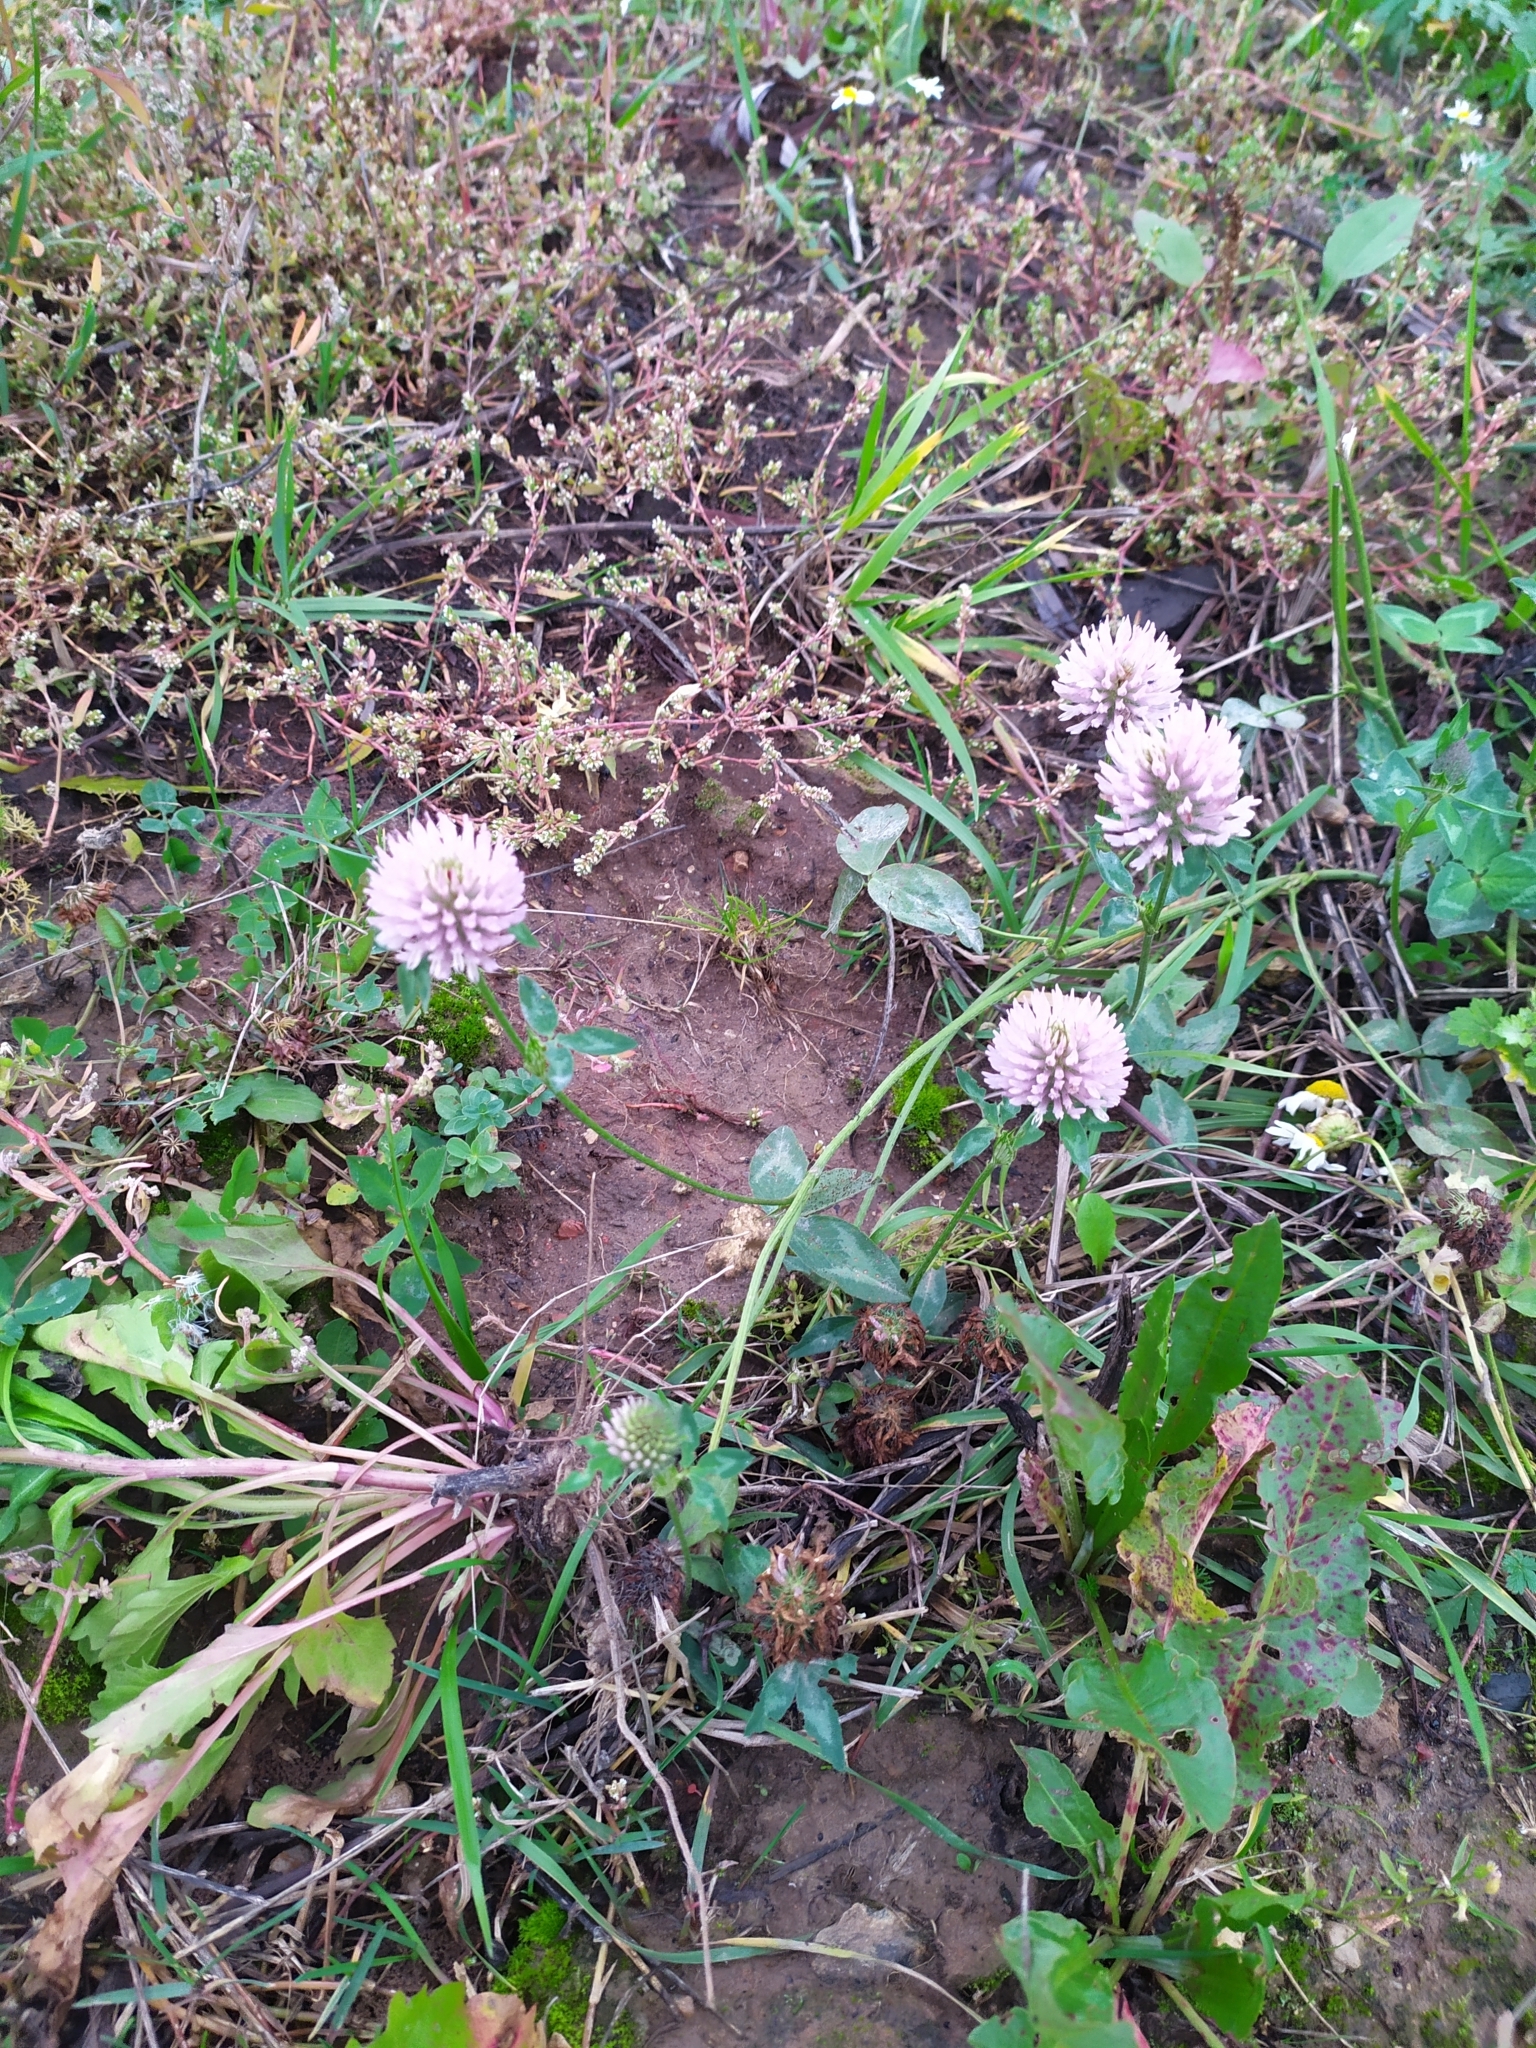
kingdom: Plantae
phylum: Tracheophyta
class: Magnoliopsida
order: Fabales
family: Fabaceae
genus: Trifolium
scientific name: Trifolium pratense
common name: Red clover
